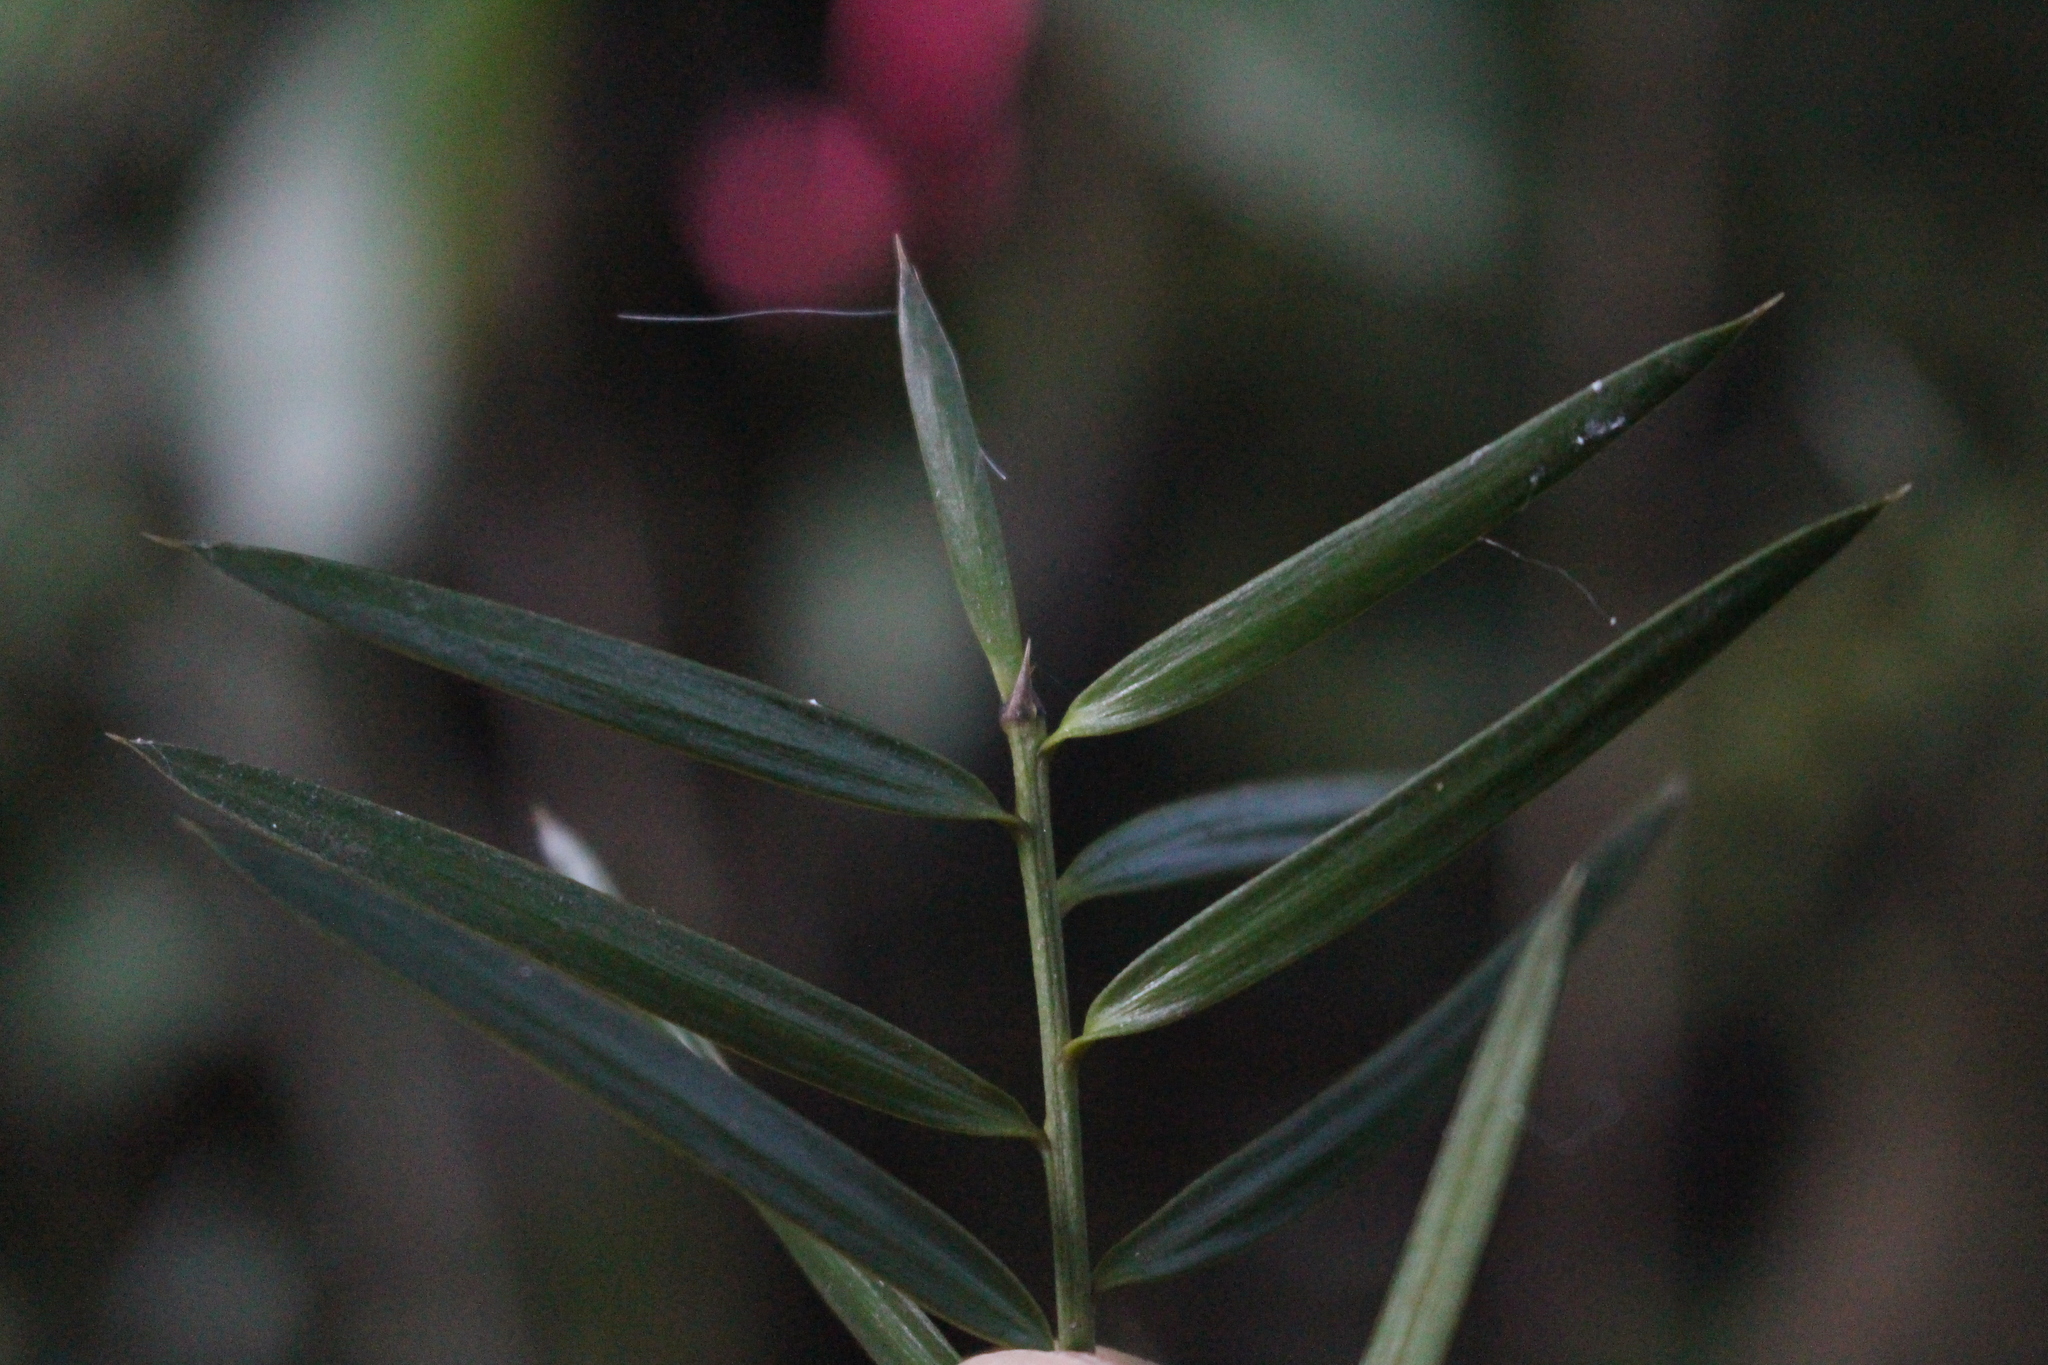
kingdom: Plantae
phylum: Tracheophyta
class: Pinopsida
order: Pinales
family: Podocarpaceae
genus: Podocarpus
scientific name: Podocarpus totara
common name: Totara
